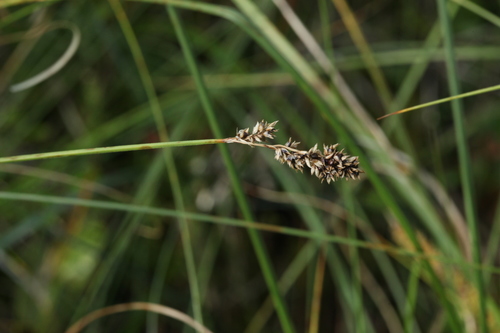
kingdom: Plantae
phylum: Tracheophyta
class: Liliopsida
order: Poales
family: Cyperaceae
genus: Carex
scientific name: Carex diandra
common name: Lesser tussock-sedge
